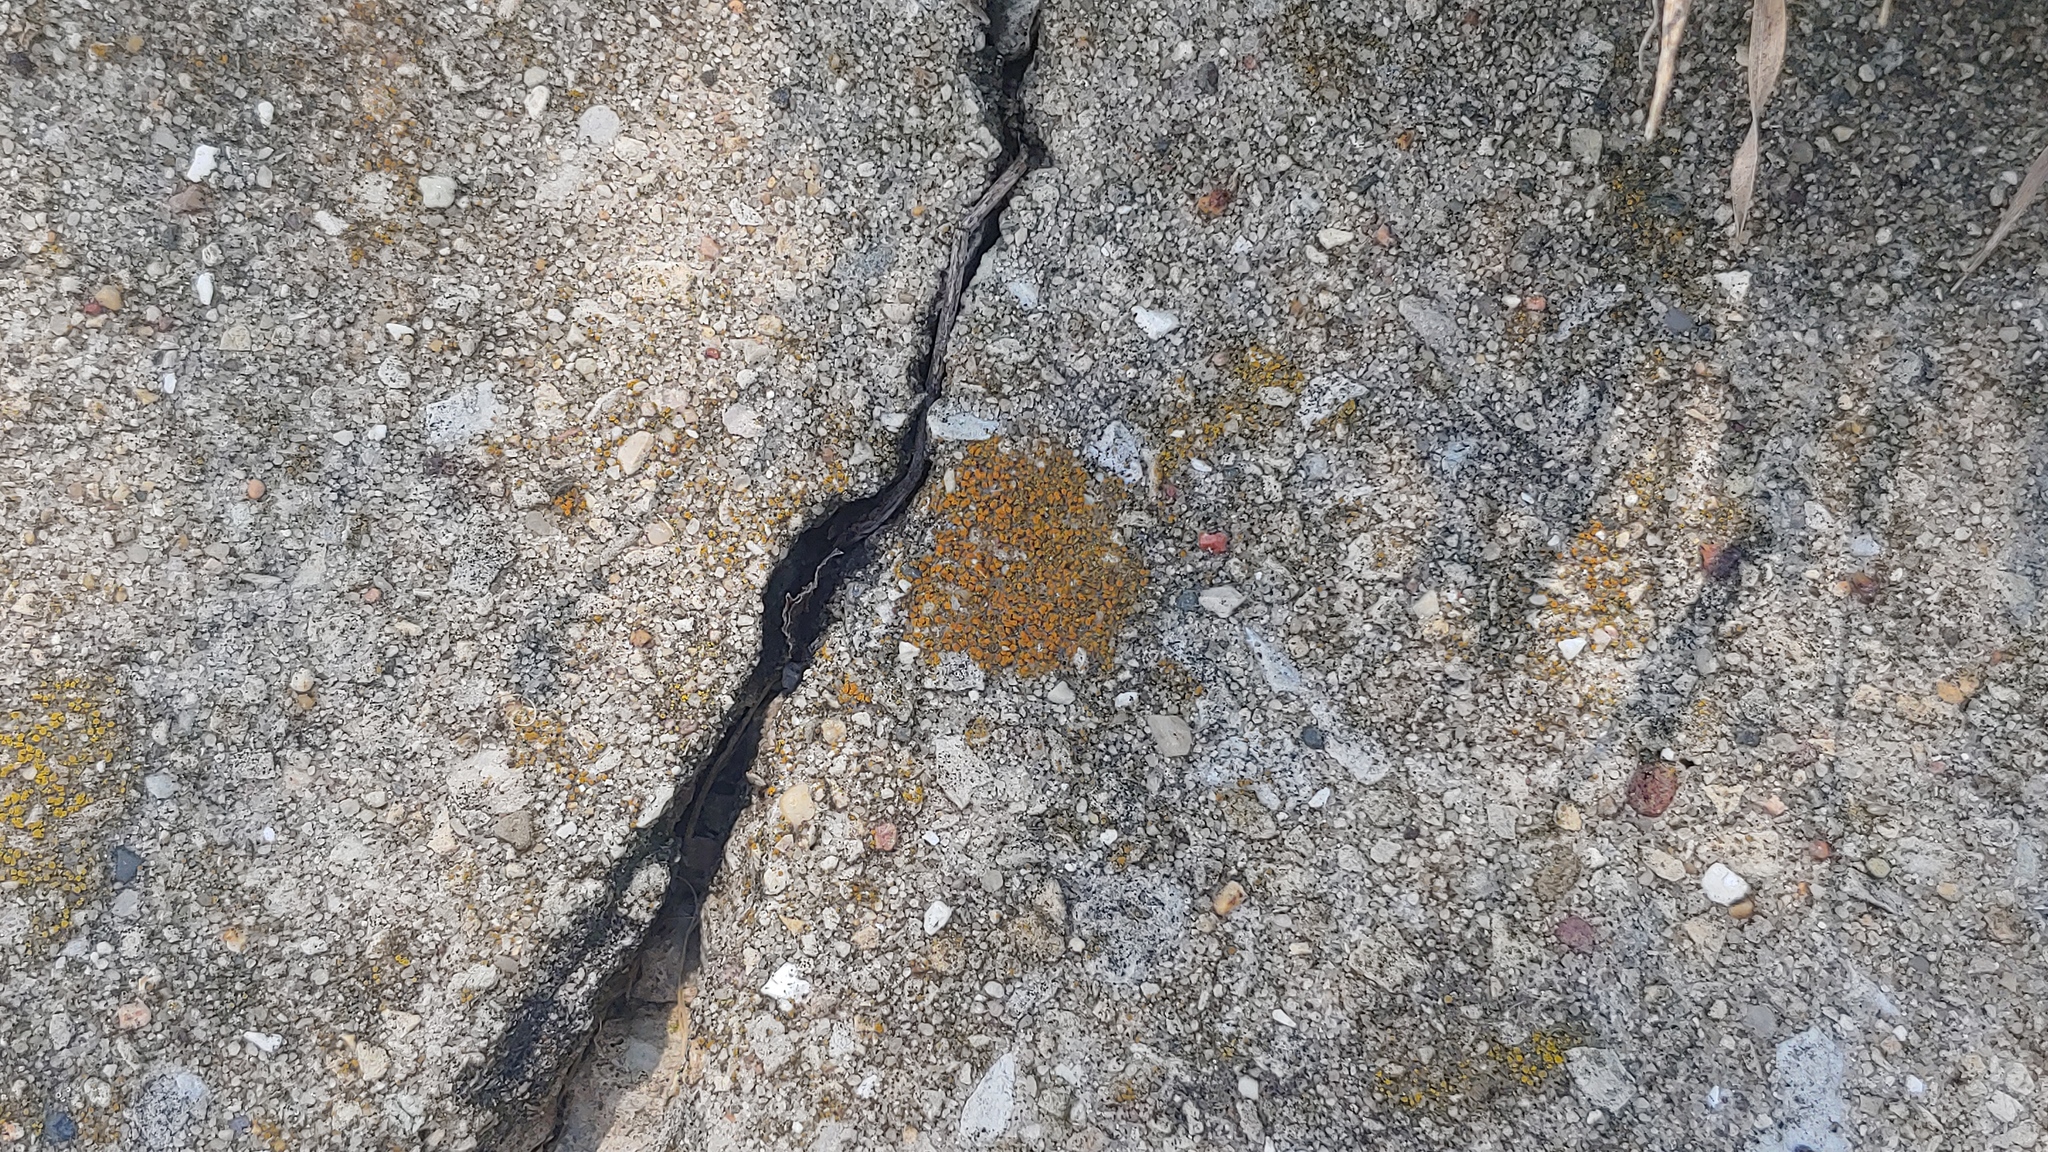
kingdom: Fungi
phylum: Ascomycota
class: Lecanoromycetes
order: Teloschistales
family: Teloschistaceae
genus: Xanthocarpia
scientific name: Xanthocarpia feracissima
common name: Sidewalk firedot
